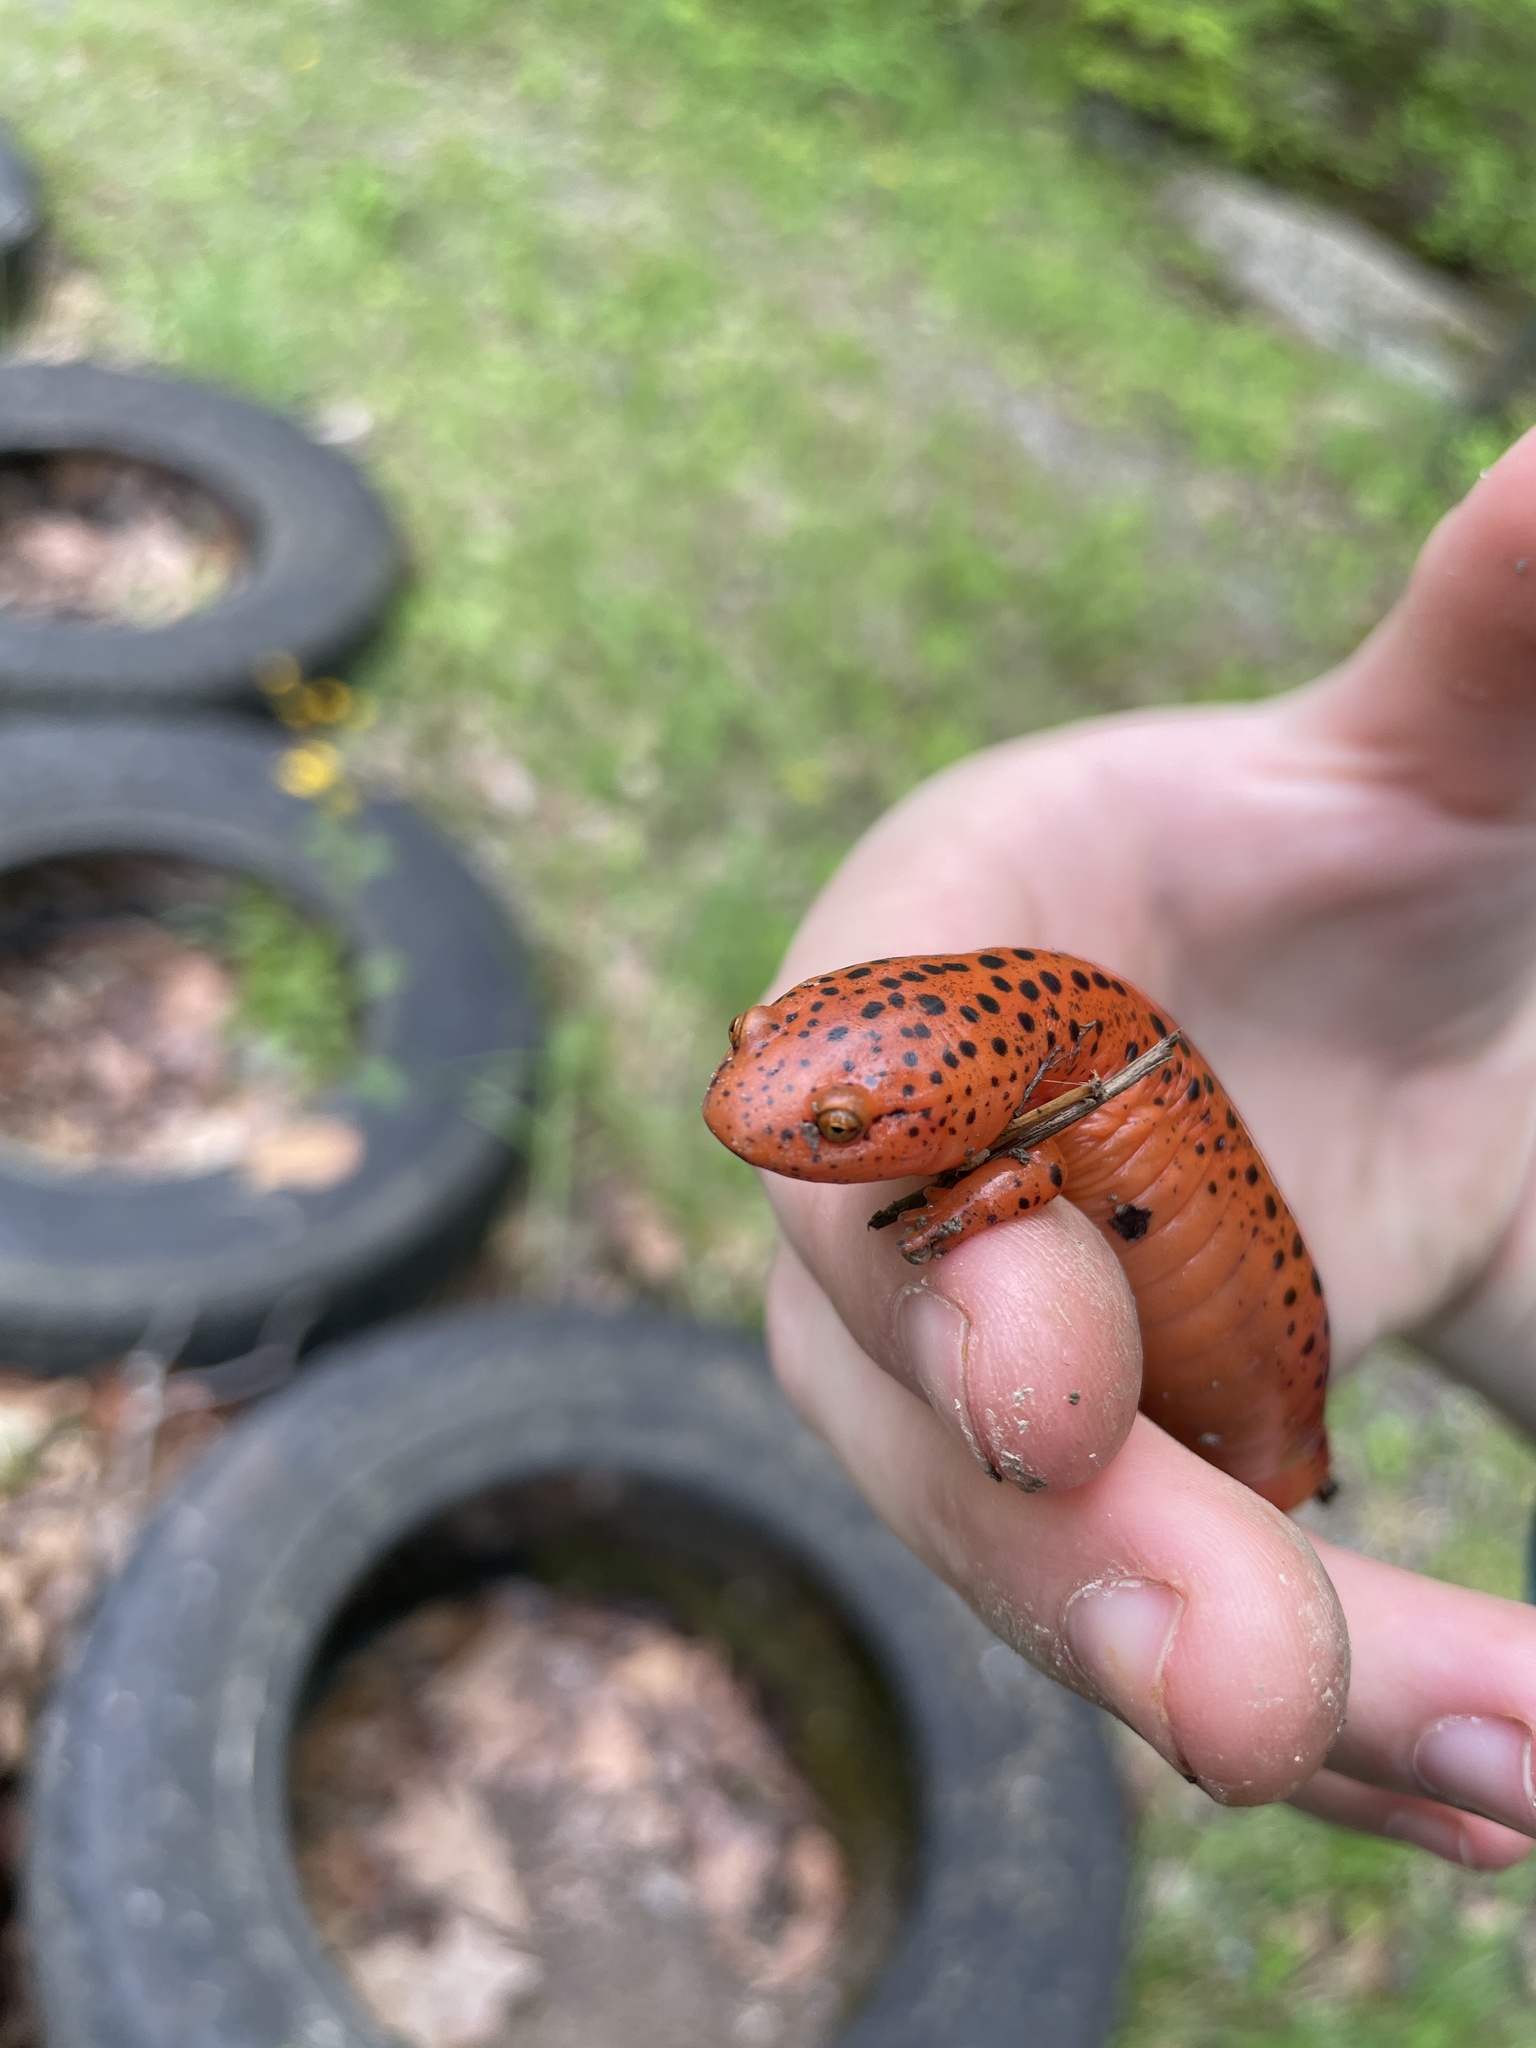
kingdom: Animalia
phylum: Chordata
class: Amphibia
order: Caudata
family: Plethodontidae
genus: Pseudotriton
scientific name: Pseudotriton ruber
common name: Red salamander
